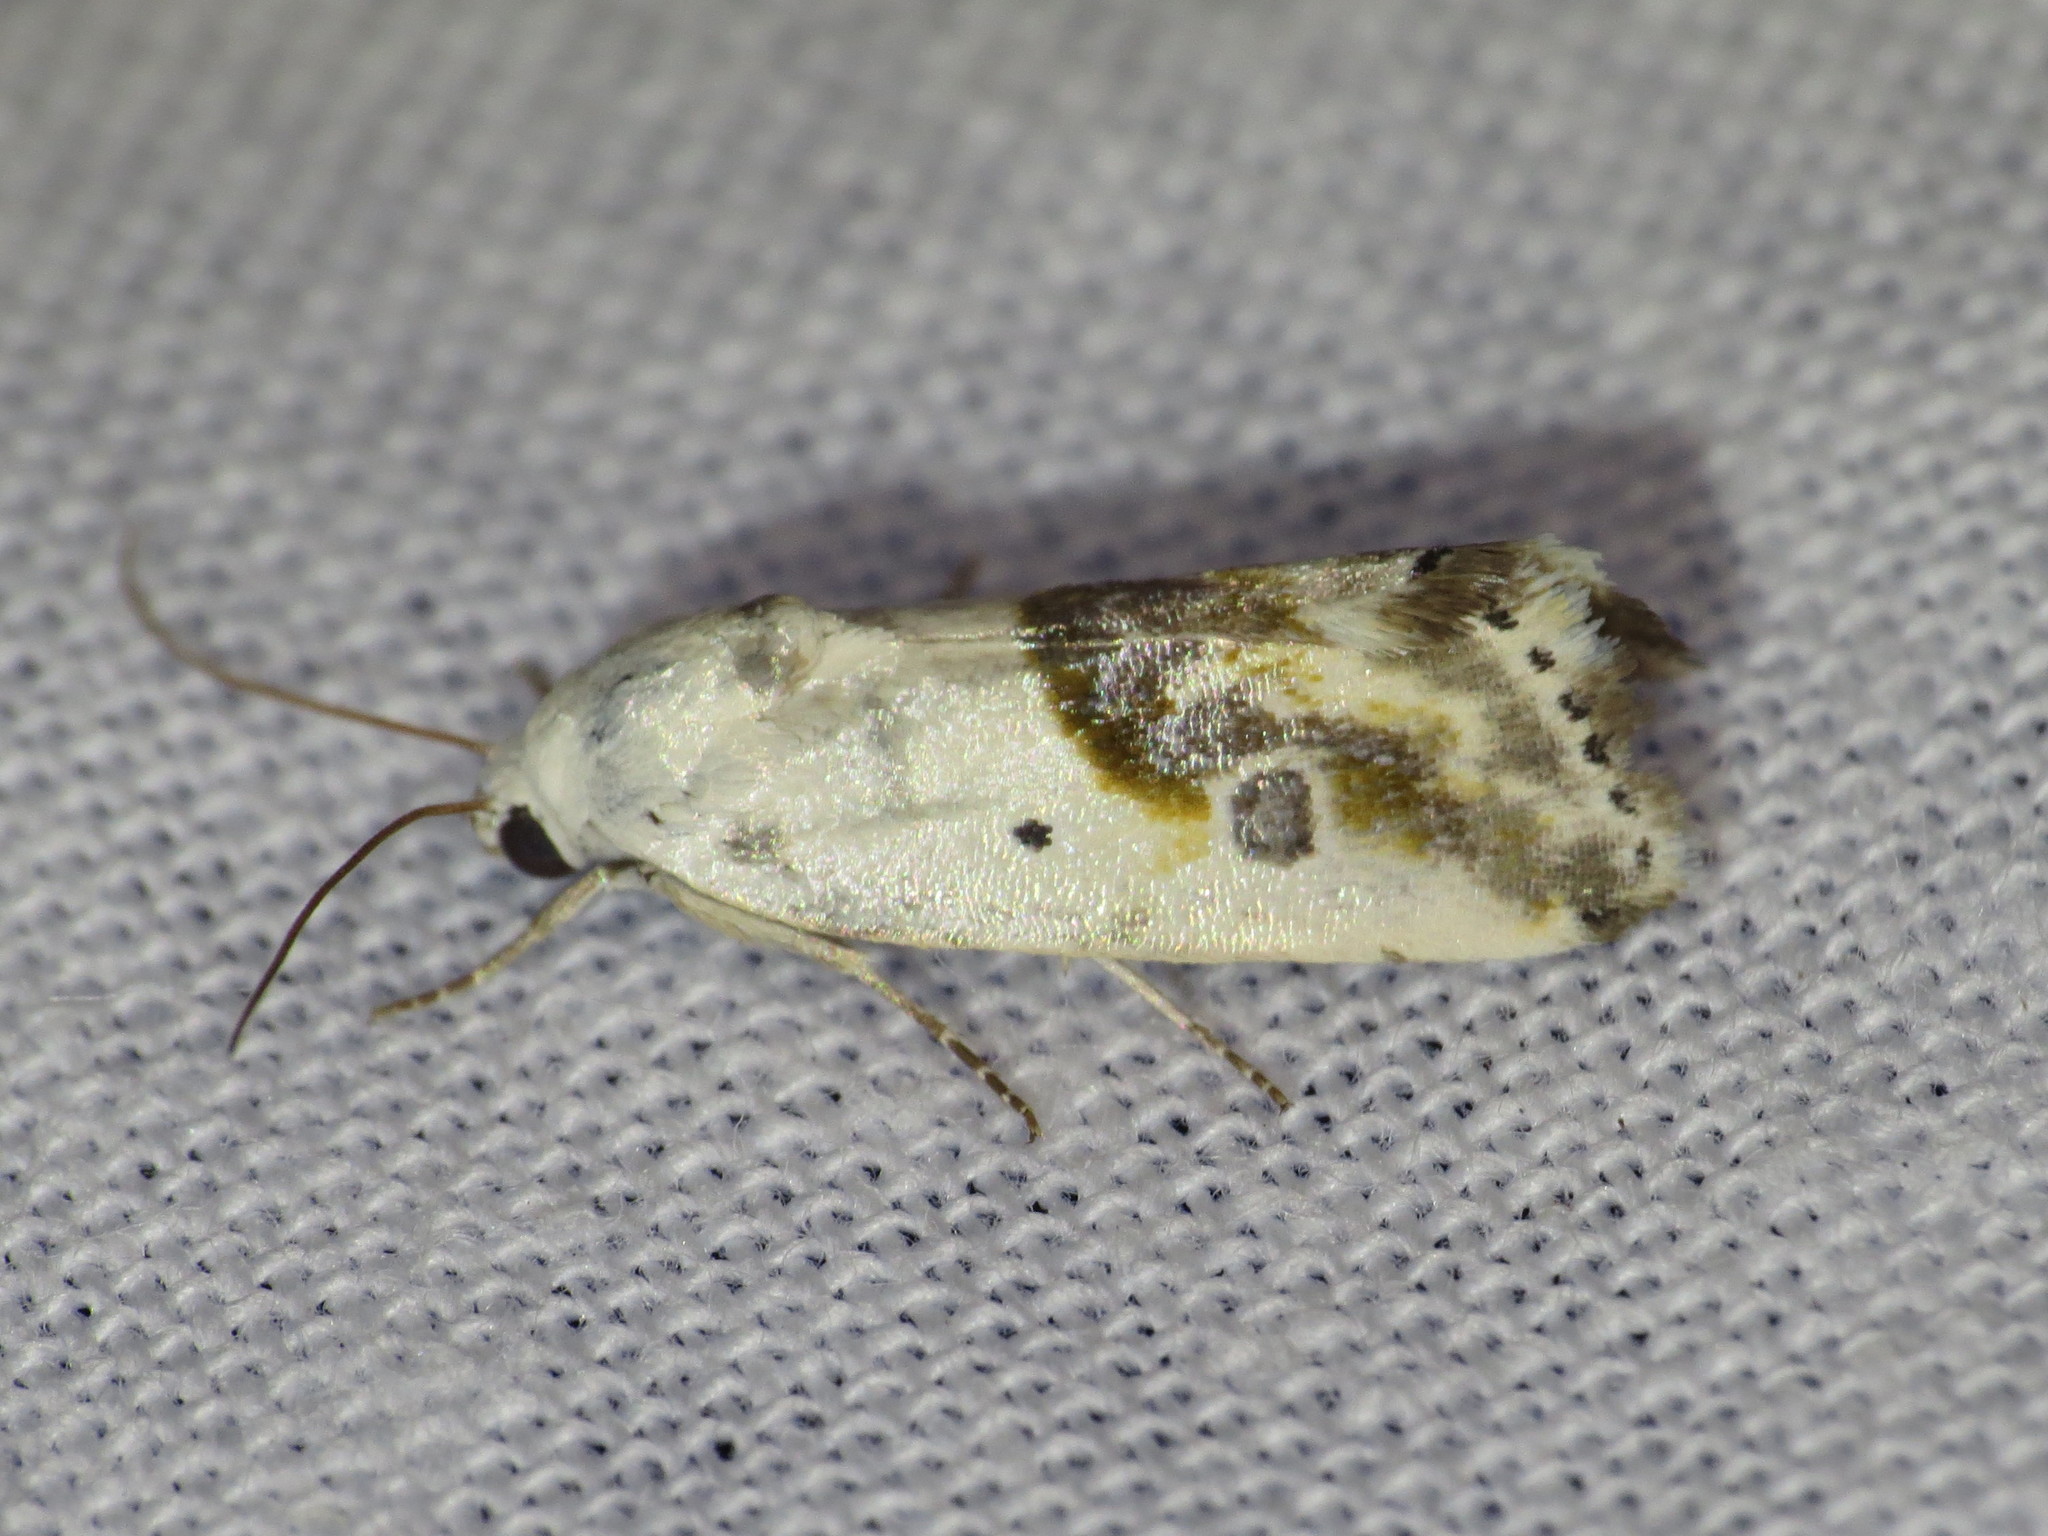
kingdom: Animalia
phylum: Arthropoda
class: Insecta
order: Lepidoptera
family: Noctuidae
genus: Acontia
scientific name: Acontia candefacta
